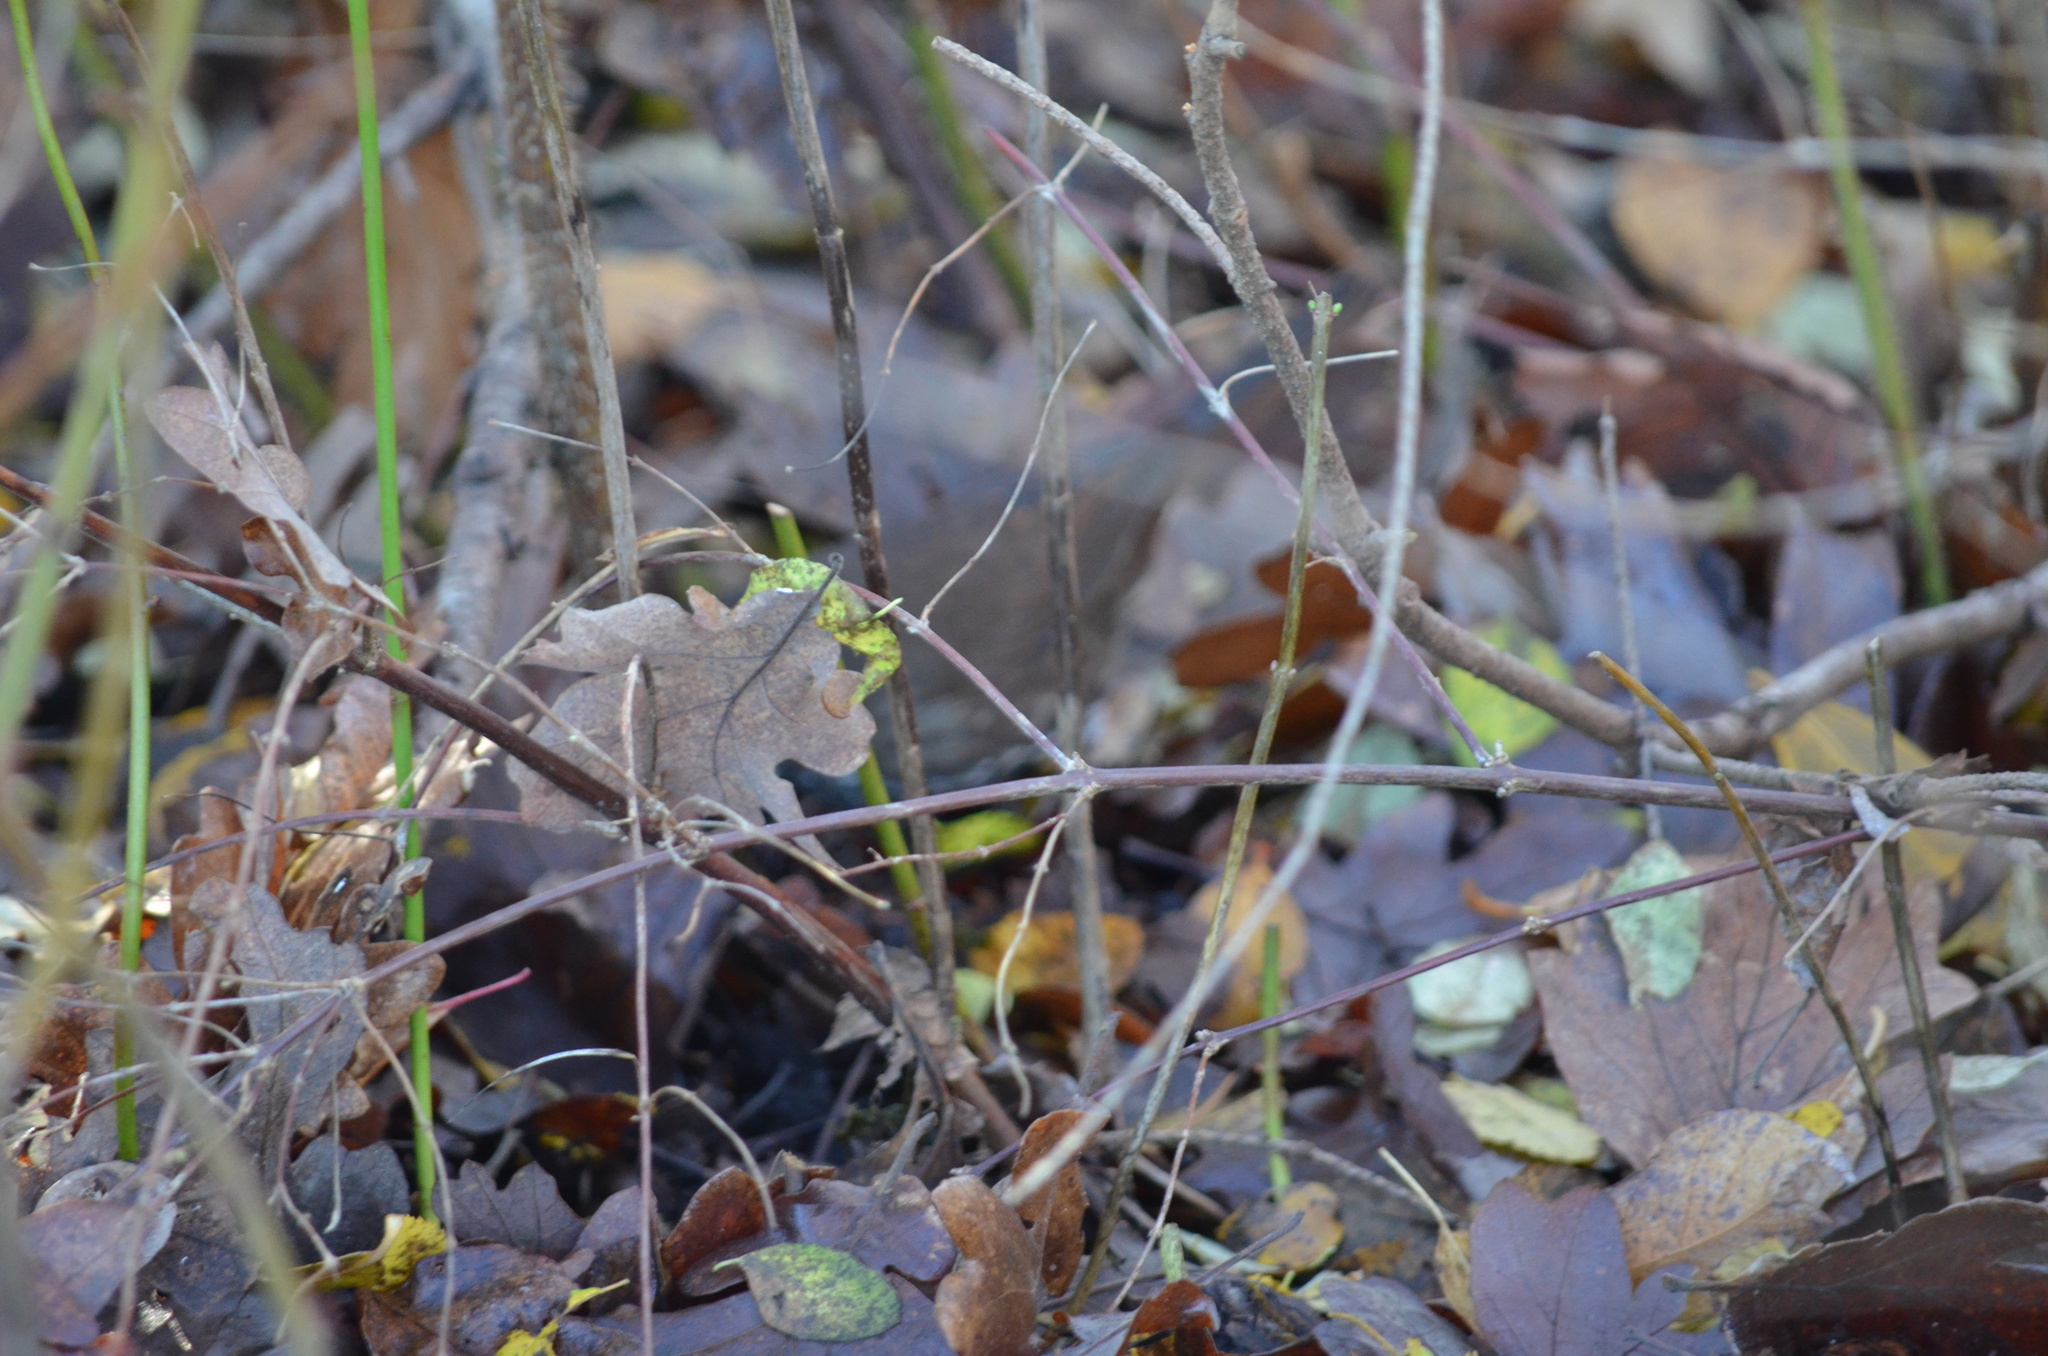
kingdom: Animalia
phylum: Chordata
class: Aves
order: Passeriformes
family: Passerellidae
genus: Passerella
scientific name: Passerella iliaca
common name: Fox sparrow
